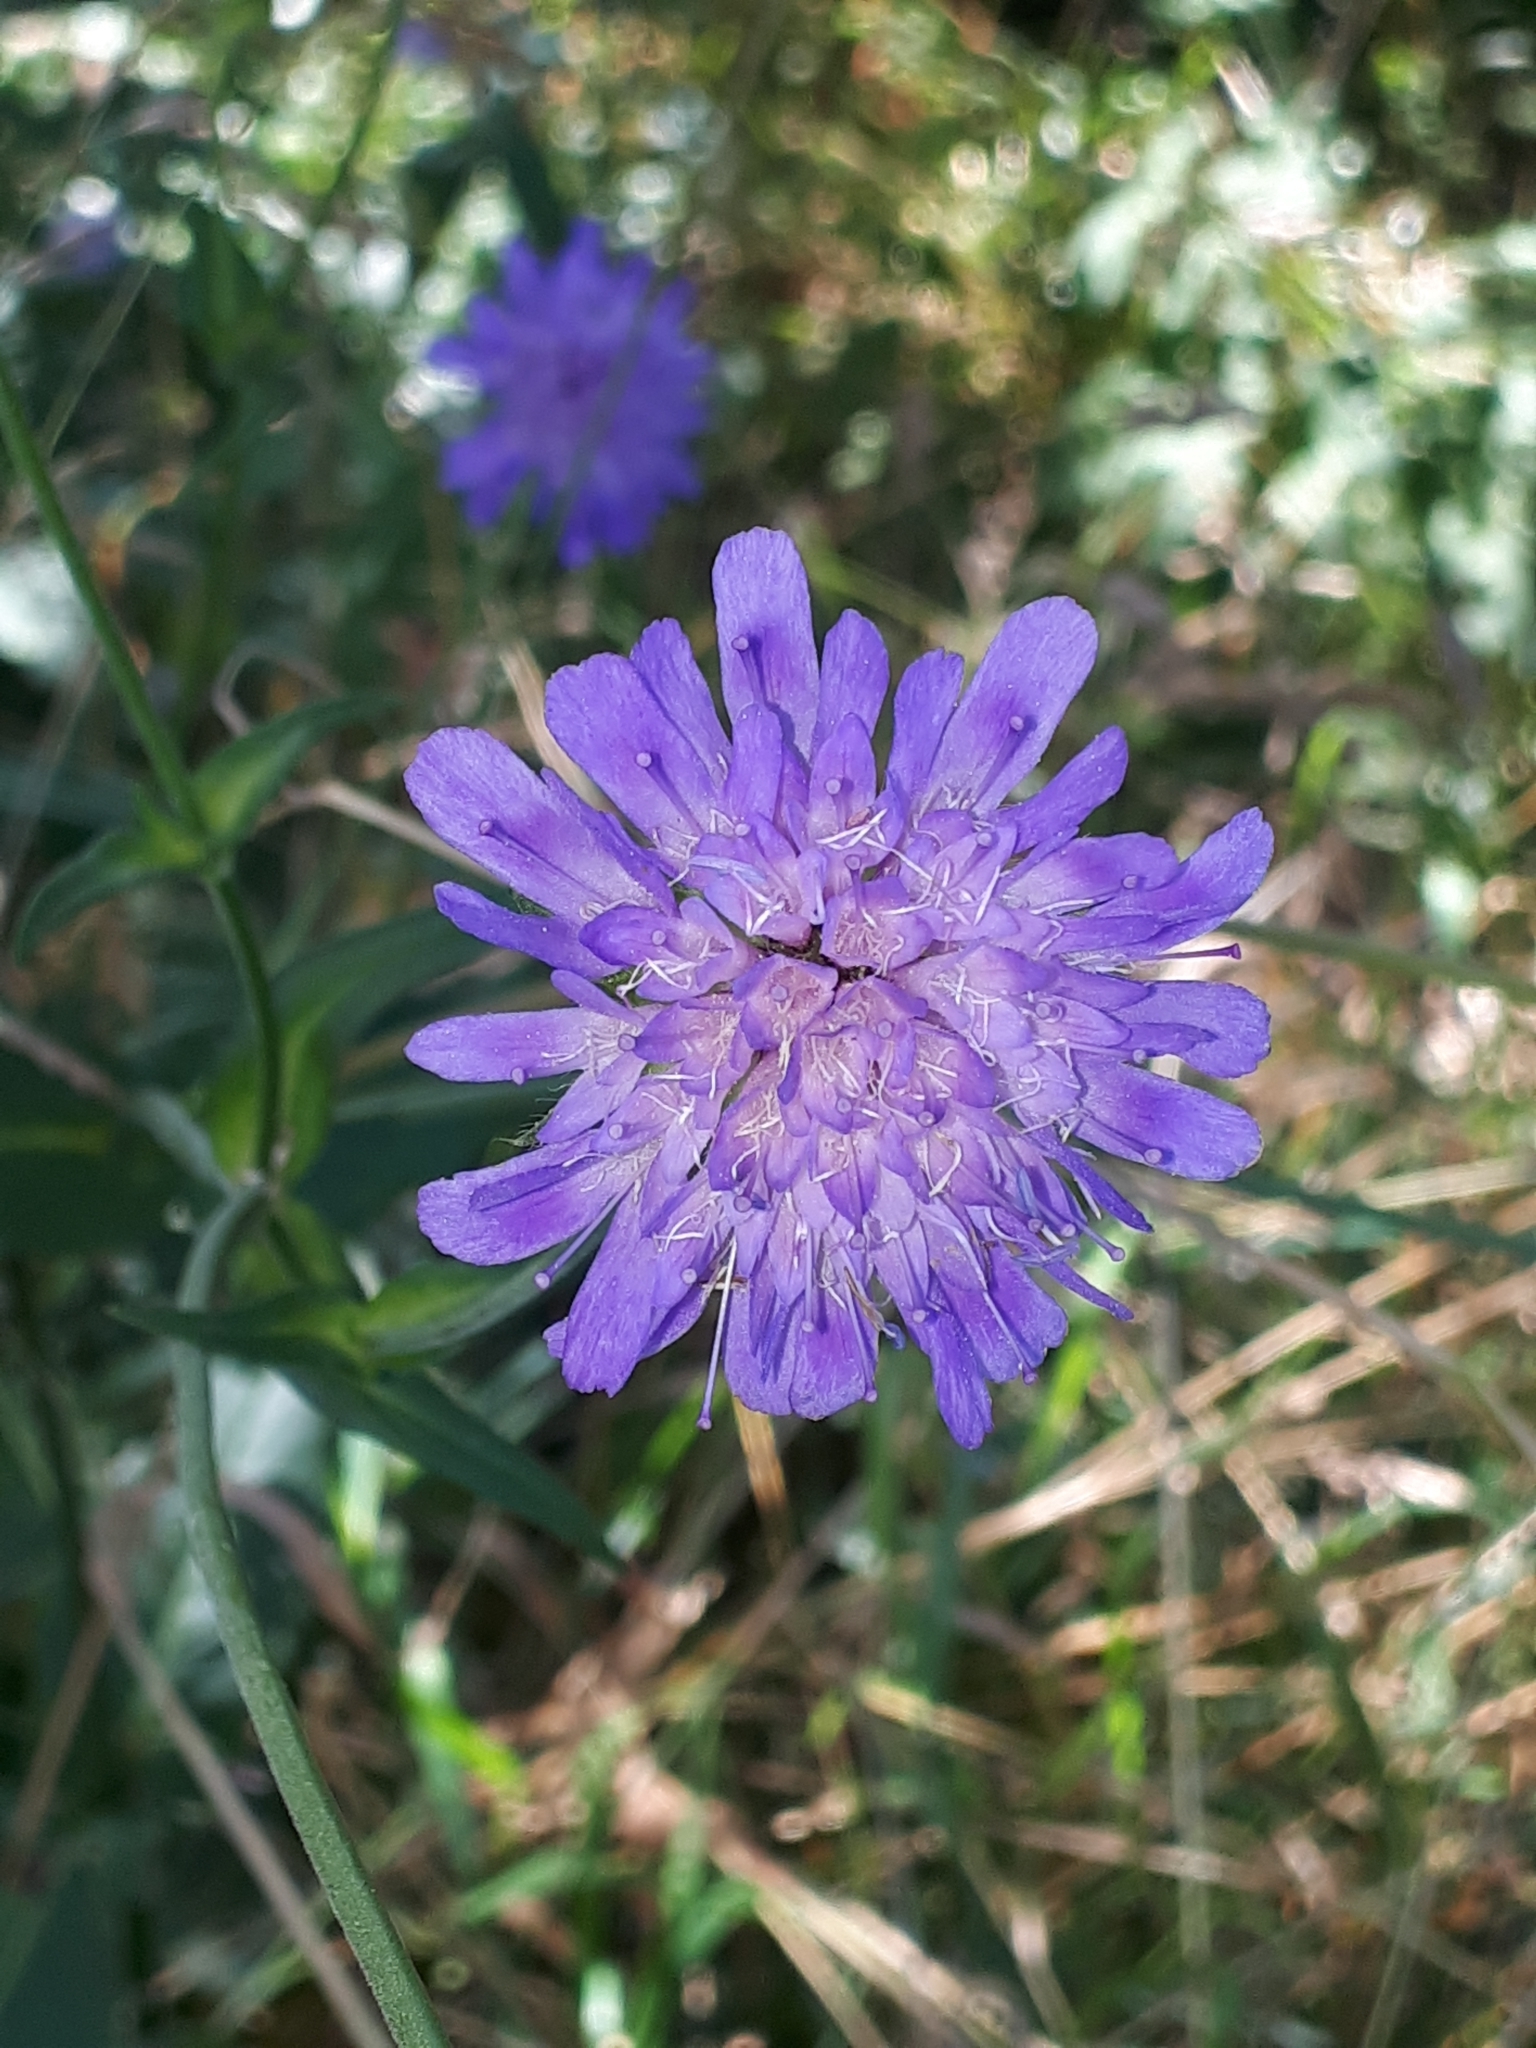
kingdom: Plantae
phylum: Tracheophyta
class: Magnoliopsida
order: Dipsacales
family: Caprifoliaceae
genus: Knautia
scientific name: Knautia dipsacifolia
